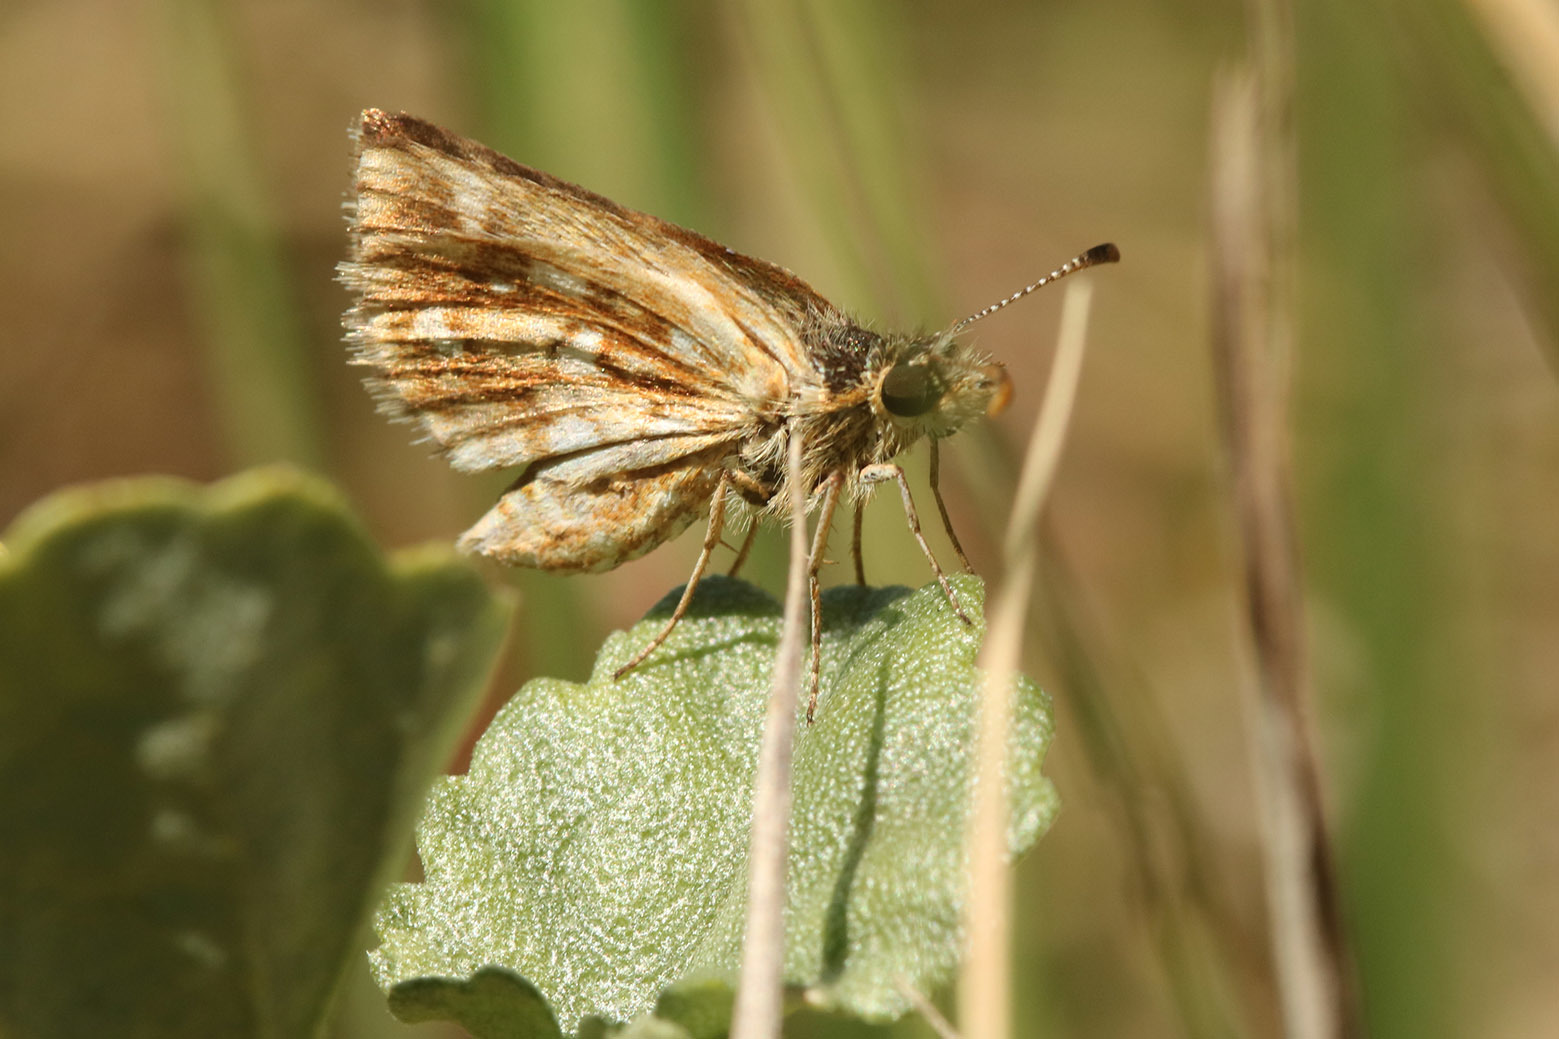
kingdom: Animalia
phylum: Arthropoda
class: Insecta
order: Lepidoptera
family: Hesperiidae
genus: Dardarina
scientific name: Dardarina
